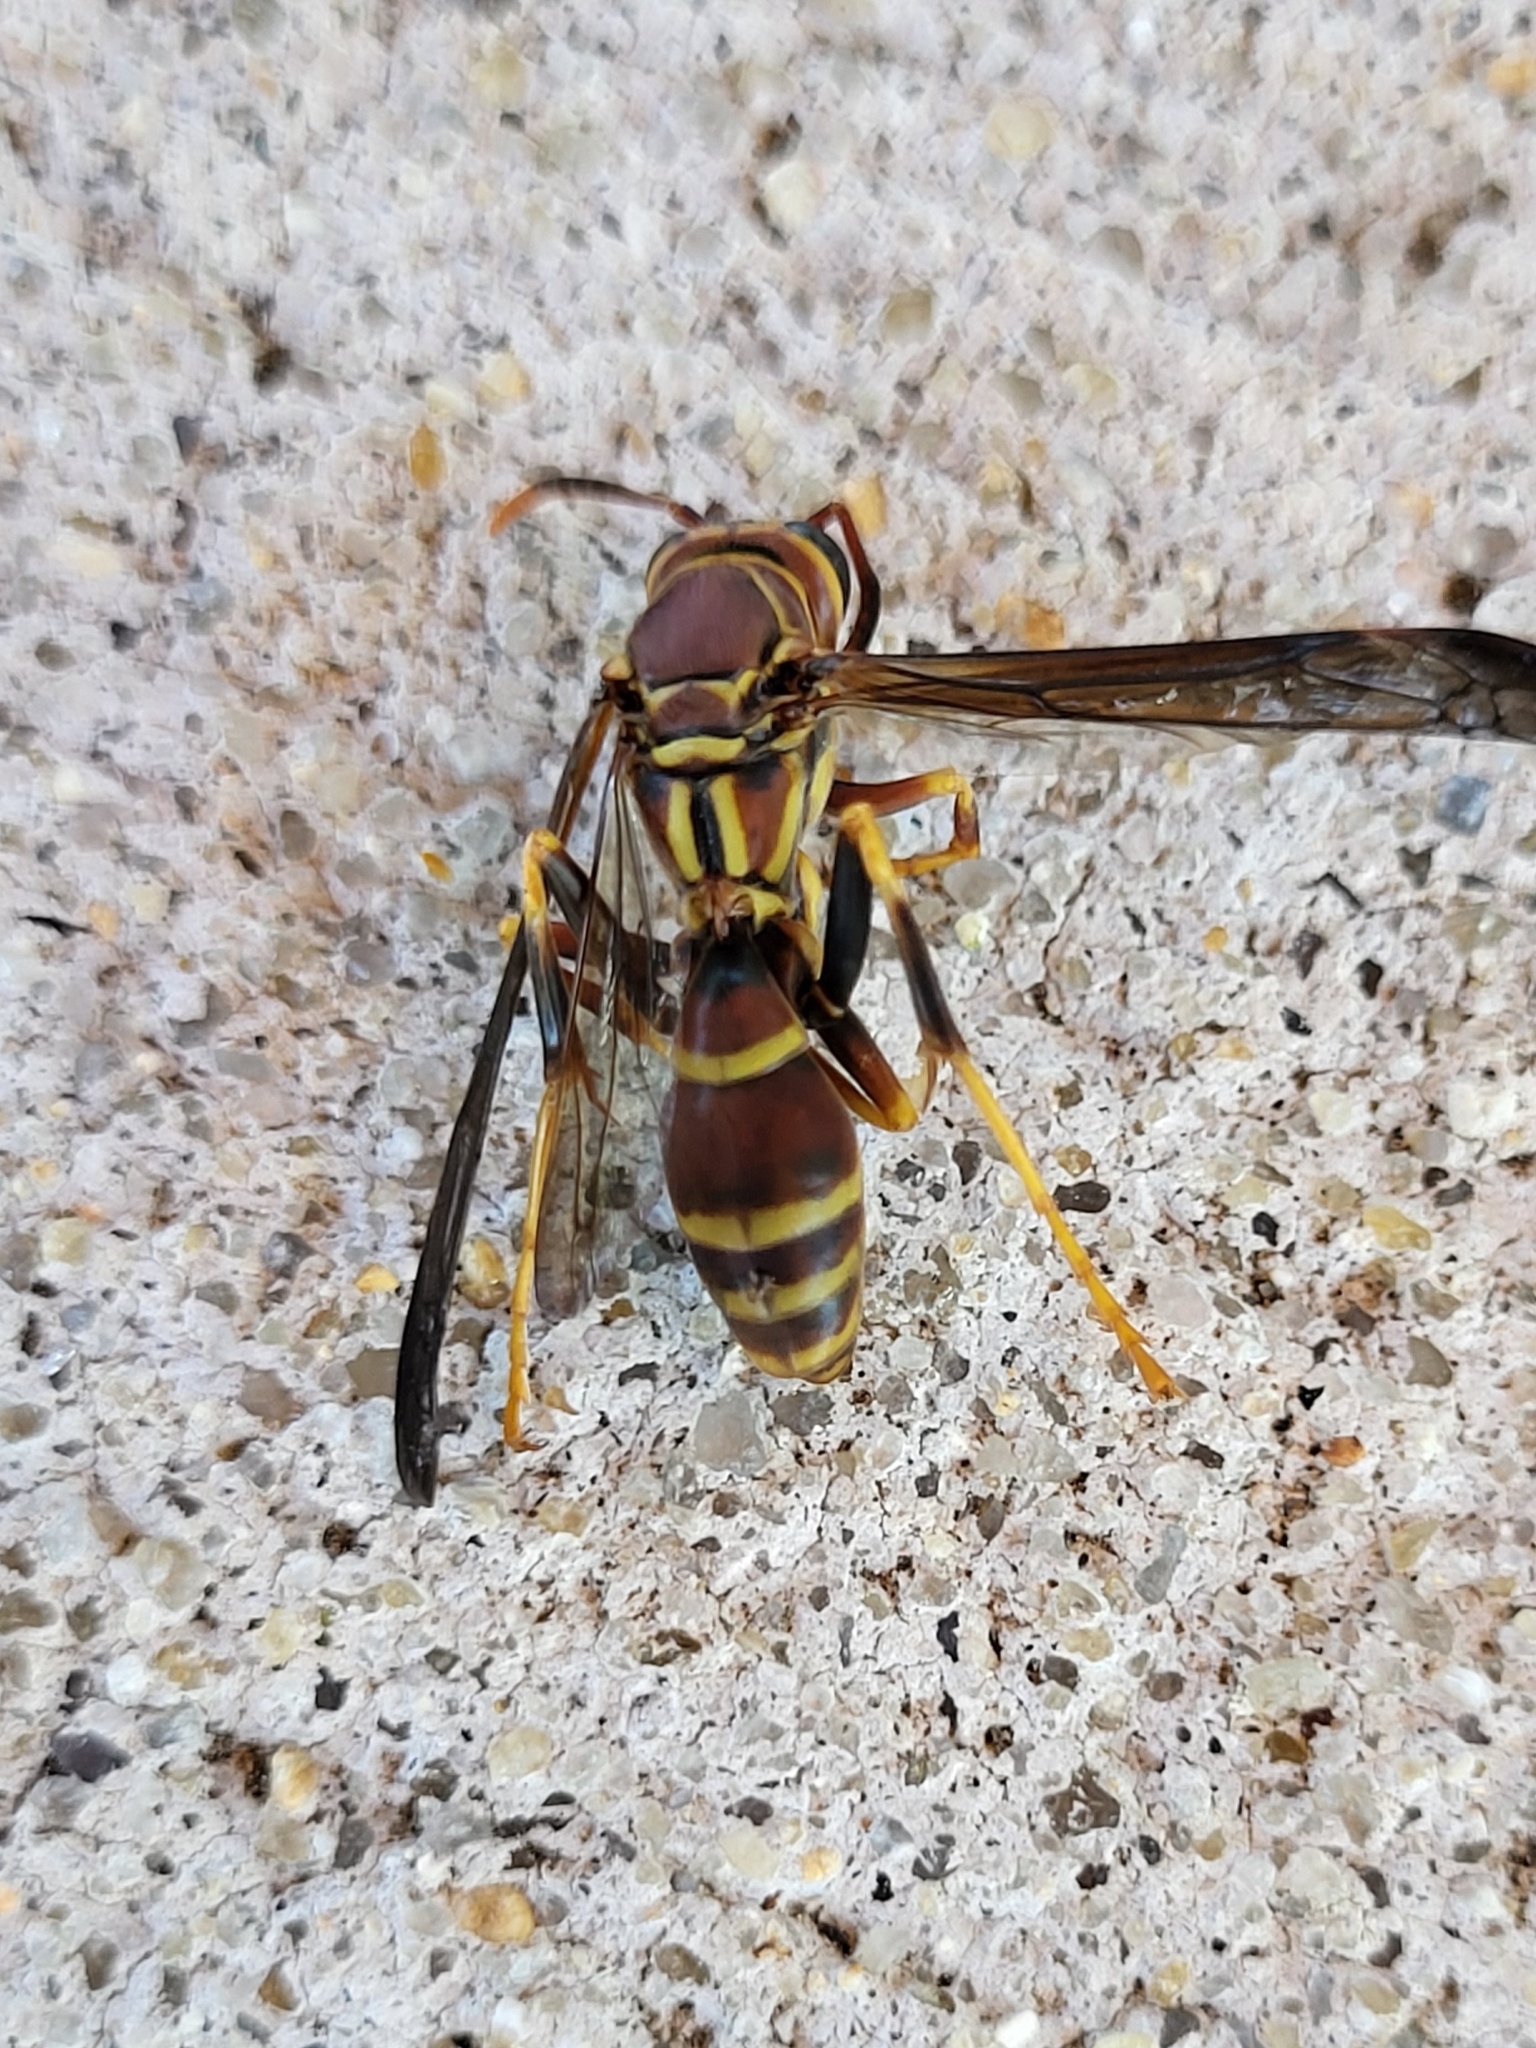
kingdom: Animalia
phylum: Arthropoda
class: Insecta
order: Hymenoptera
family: Eumenidae
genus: Polistes
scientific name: Polistes exclamans
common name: Paper wasp
